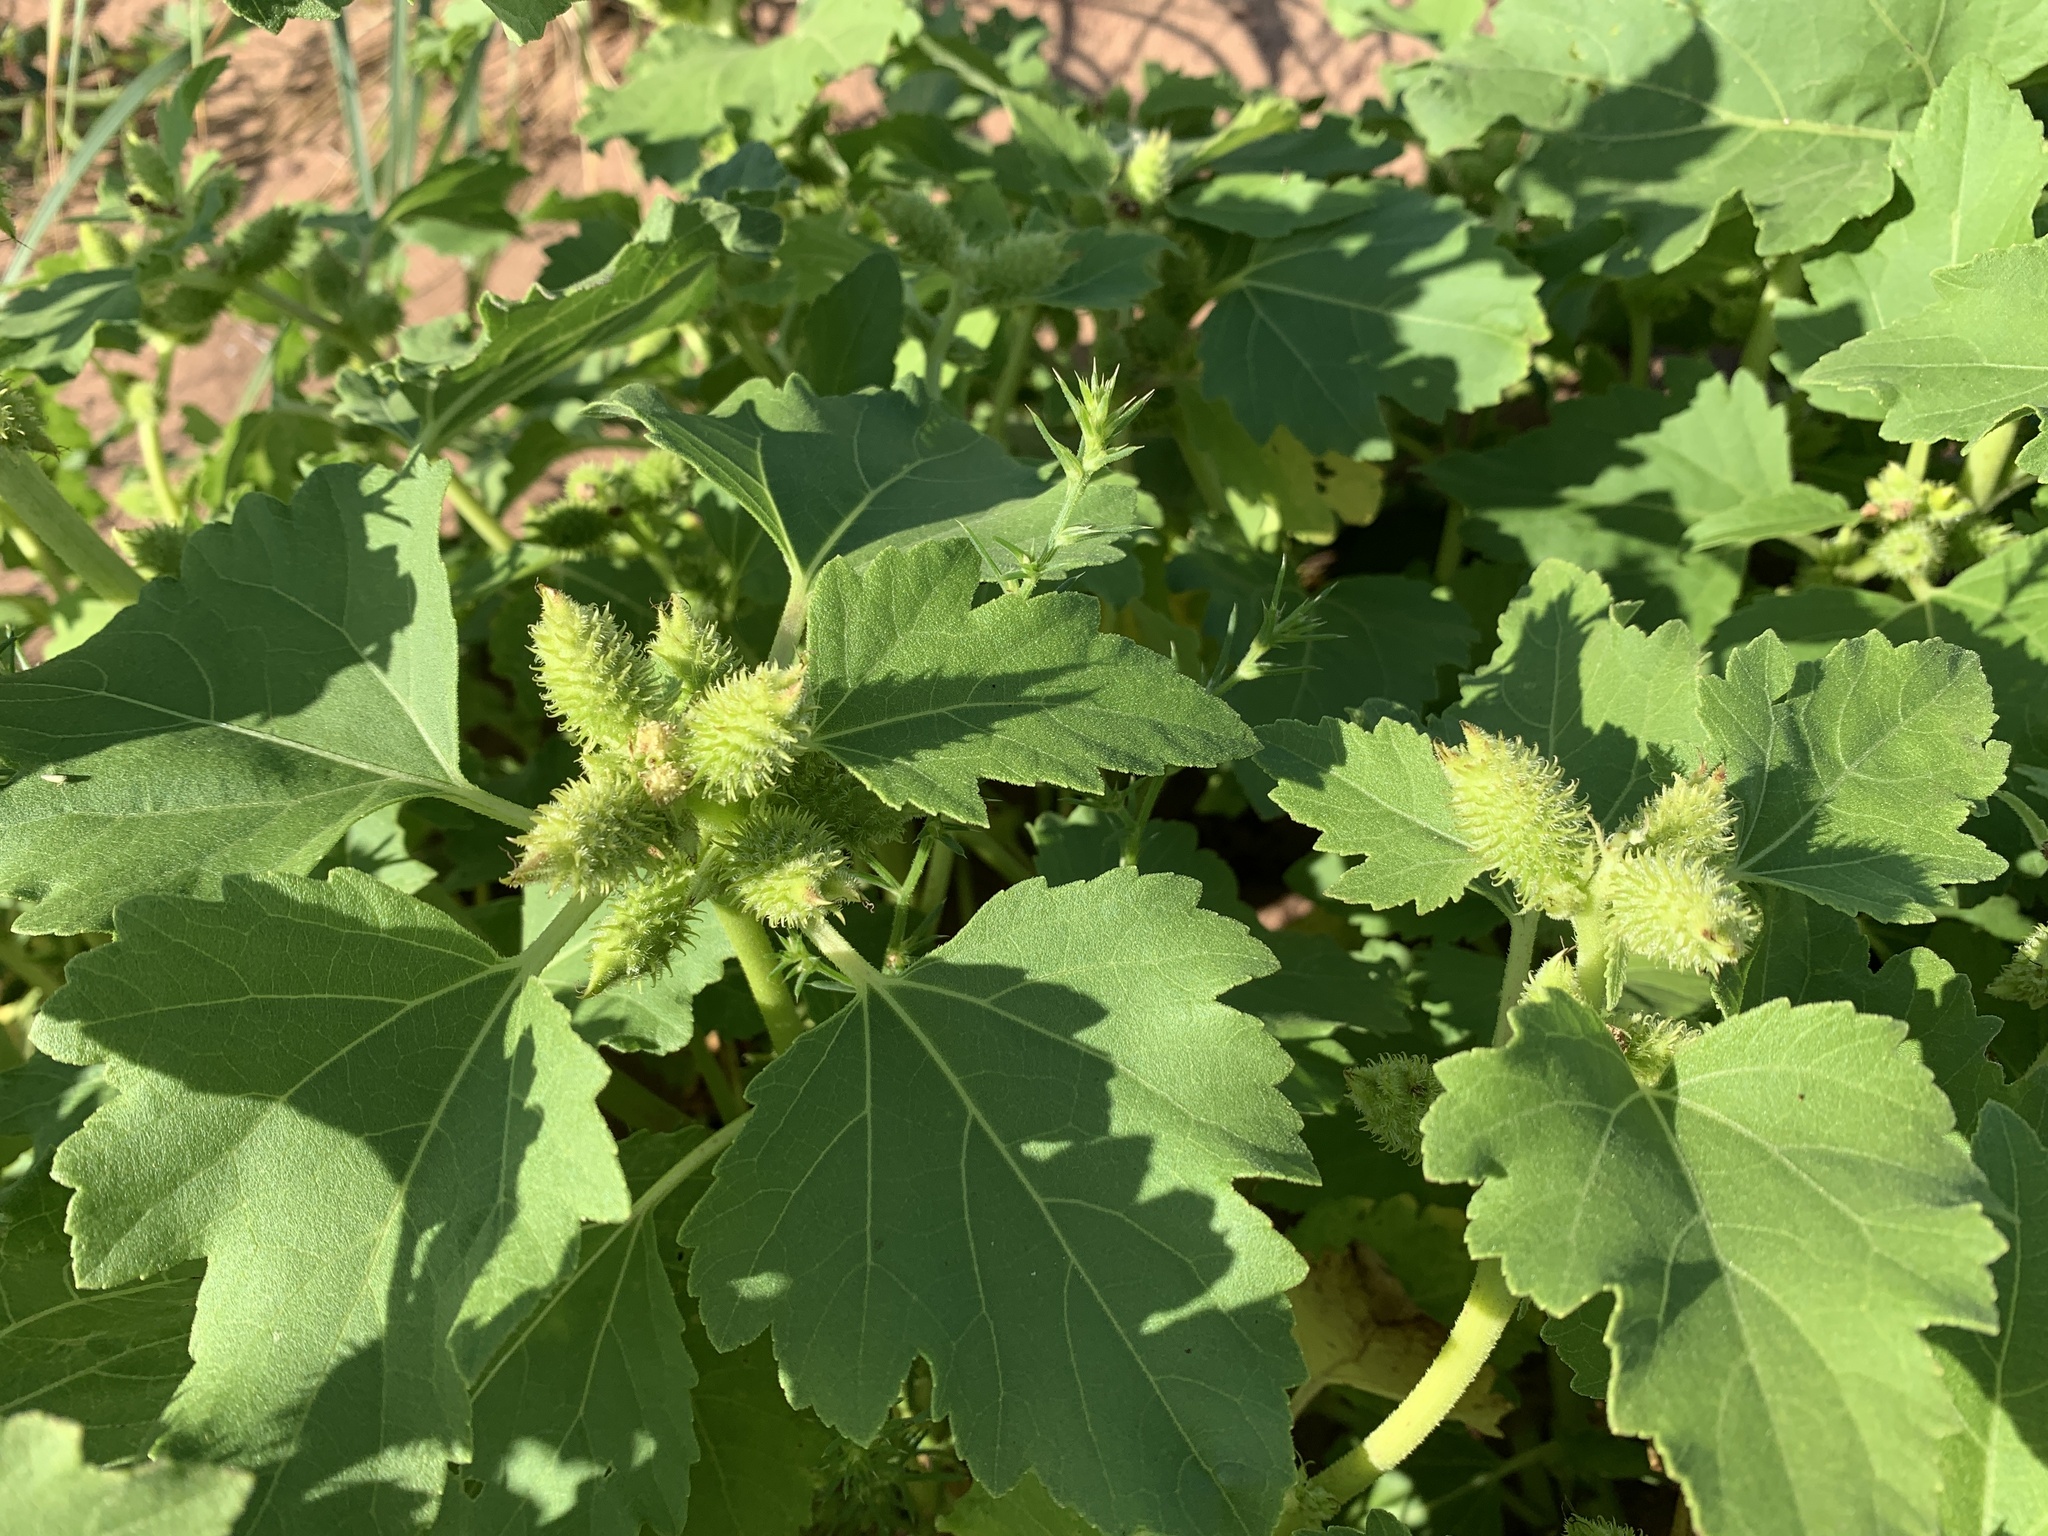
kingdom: Plantae
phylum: Tracheophyta
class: Magnoliopsida
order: Asterales
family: Asteraceae
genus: Xanthium
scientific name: Xanthium strumarium
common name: Rough cocklebur
